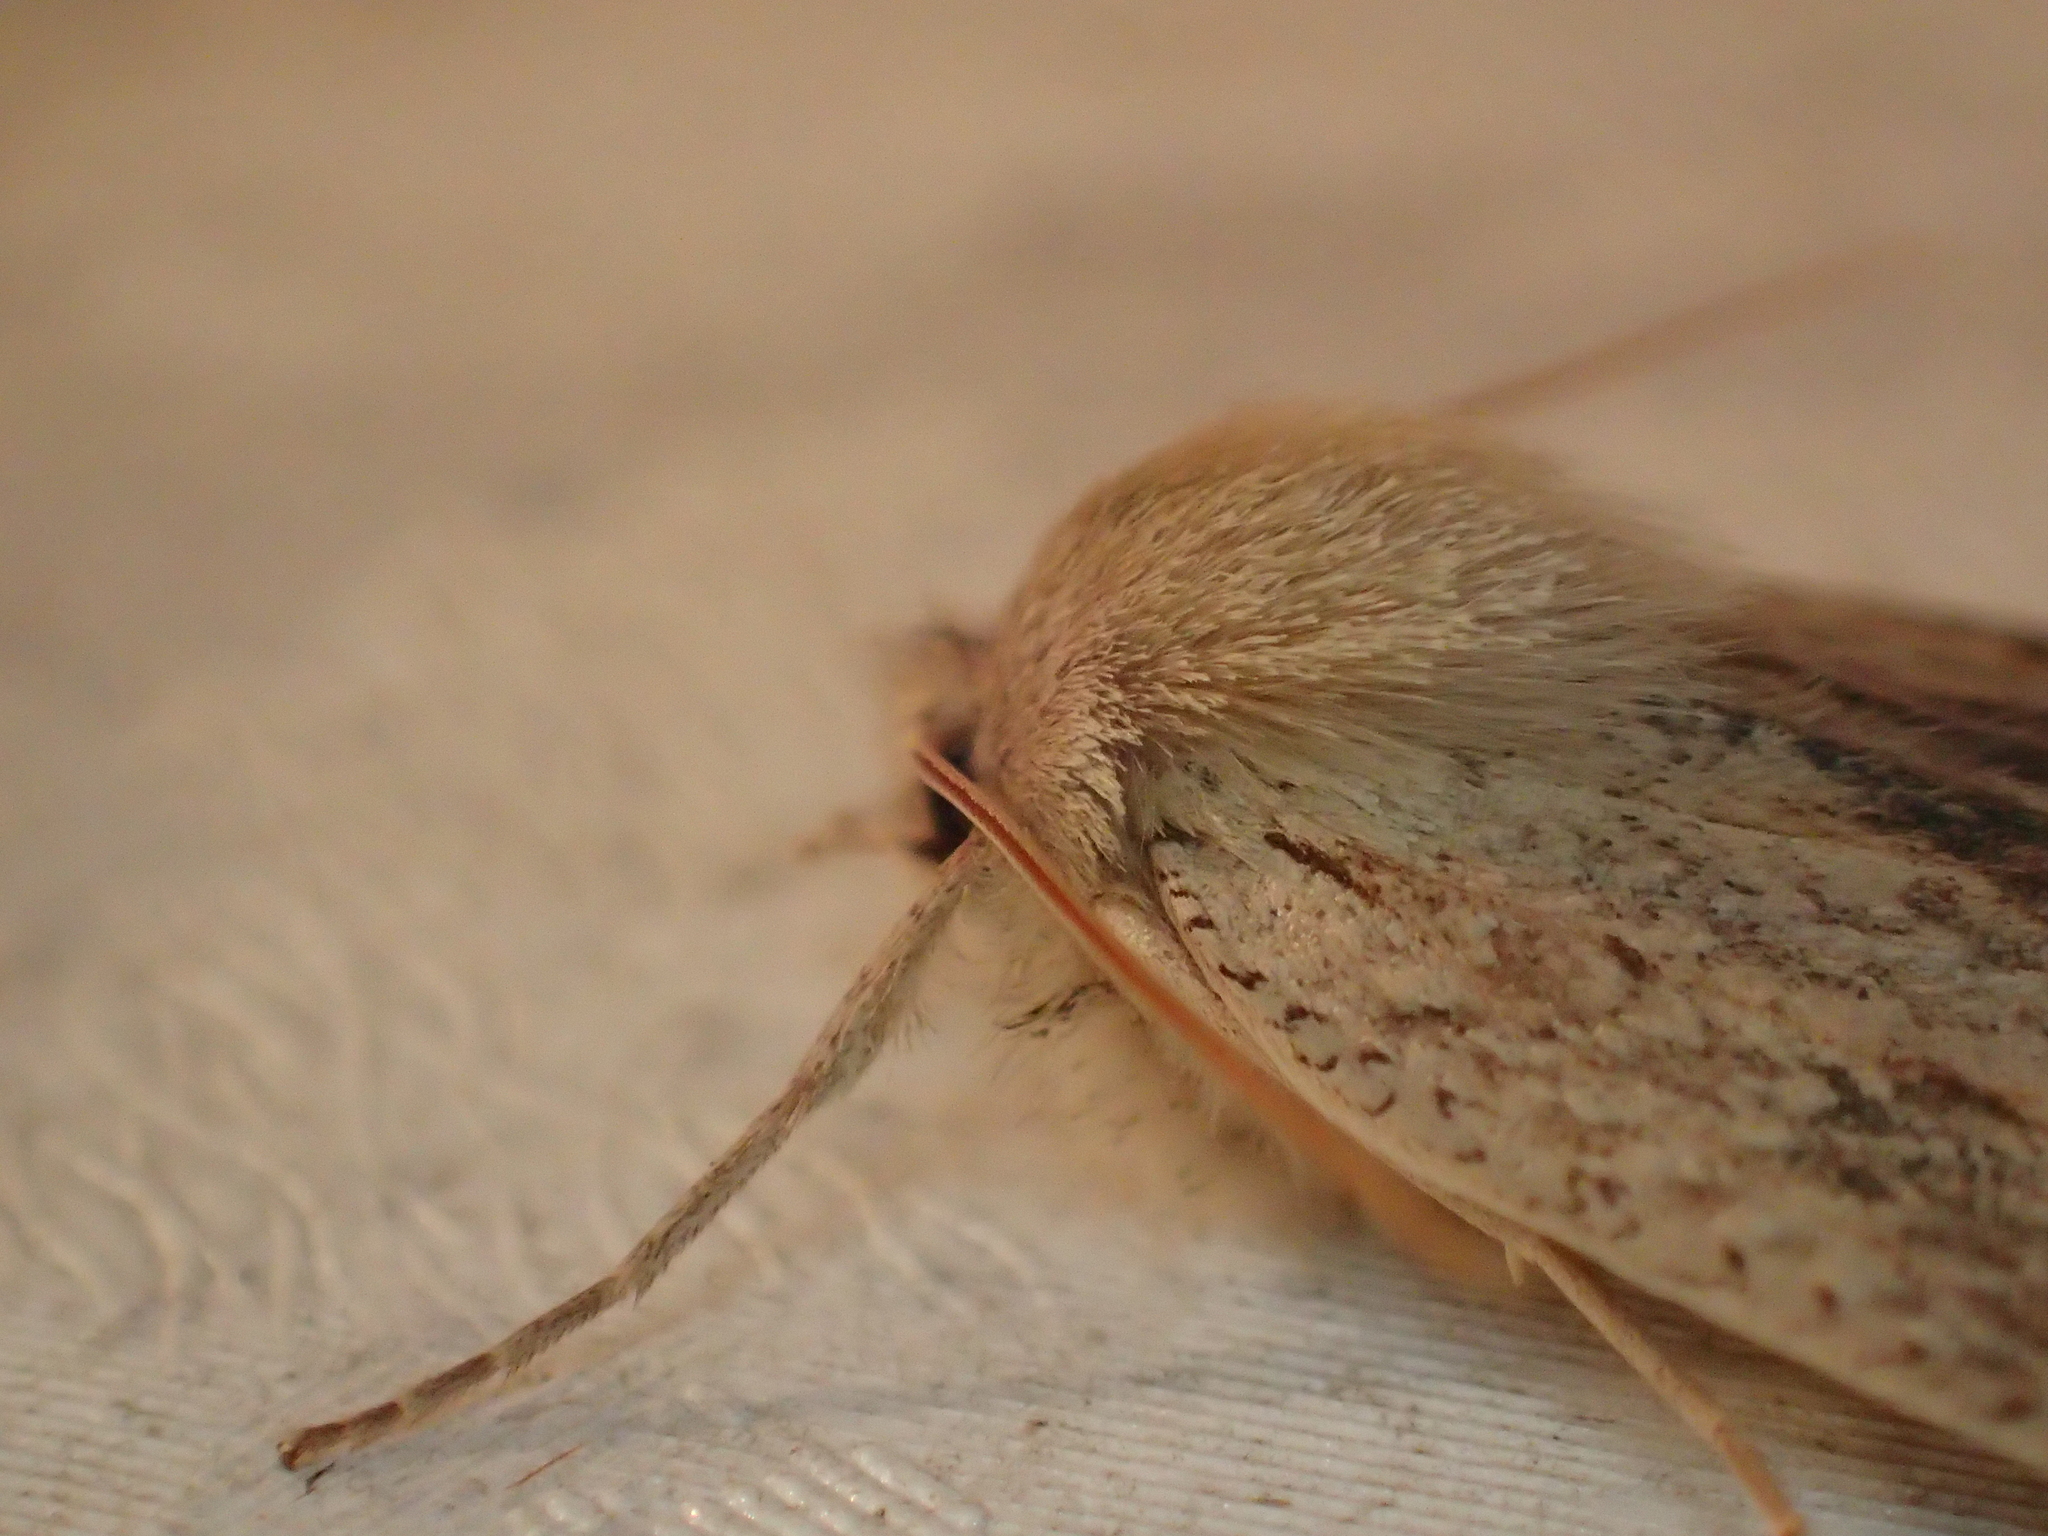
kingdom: Animalia
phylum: Arthropoda
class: Insecta
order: Lepidoptera
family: Geometridae
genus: Declana
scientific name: Declana leptomera
